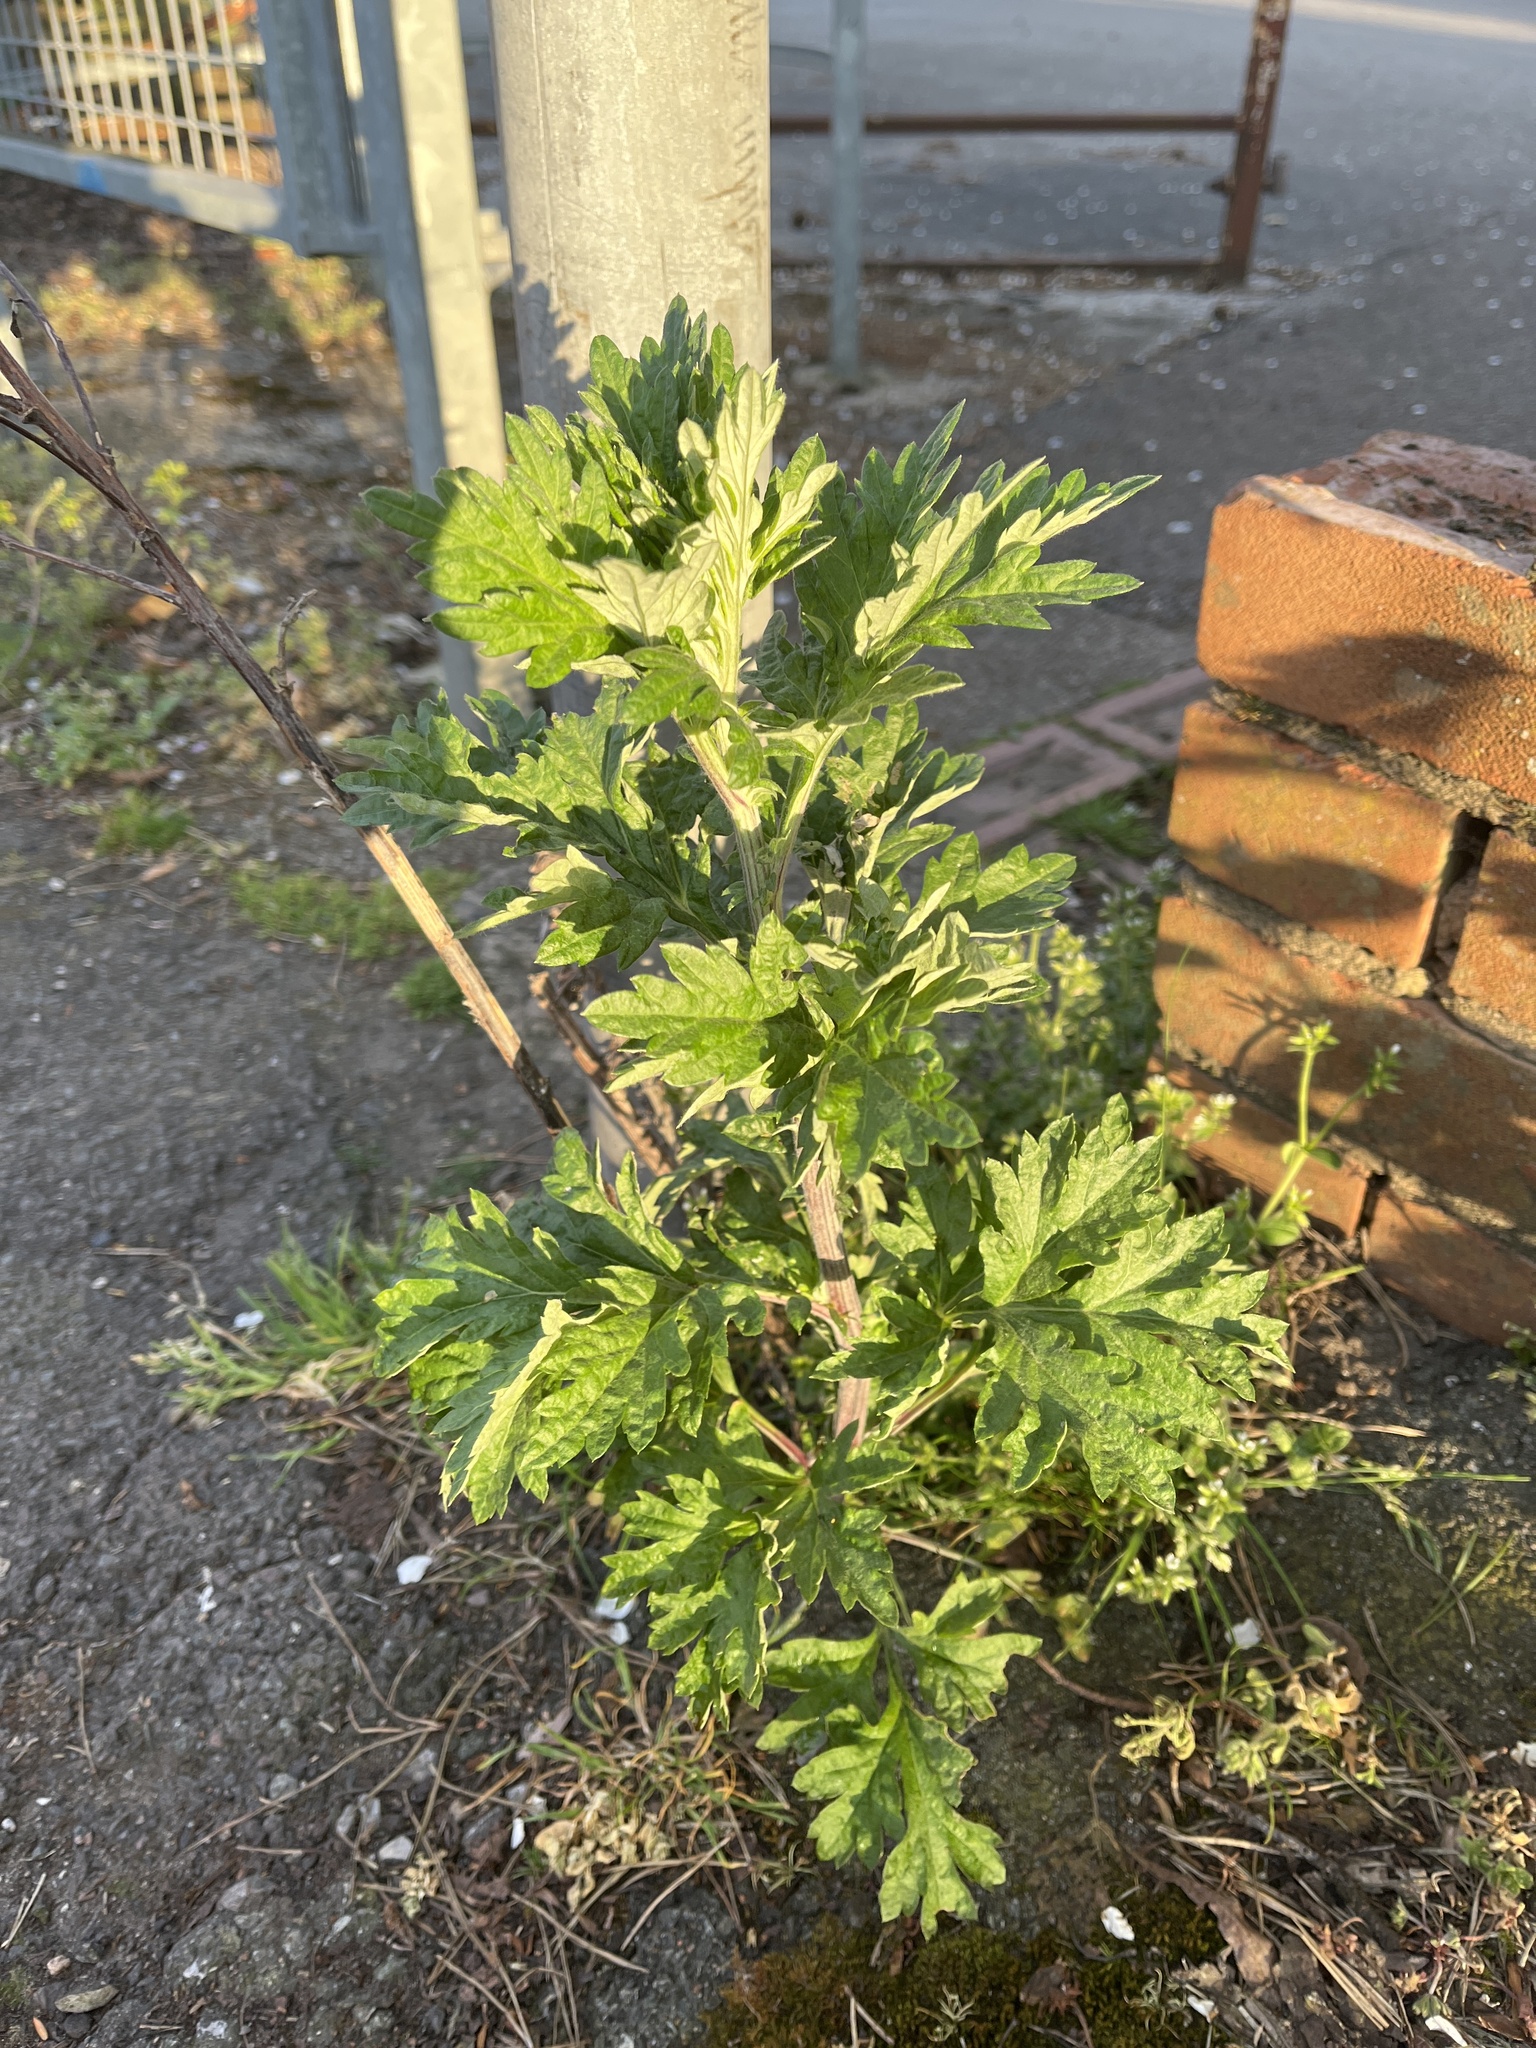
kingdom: Plantae
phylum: Tracheophyta
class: Magnoliopsida
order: Asterales
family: Asteraceae
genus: Artemisia
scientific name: Artemisia vulgaris
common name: Mugwort
